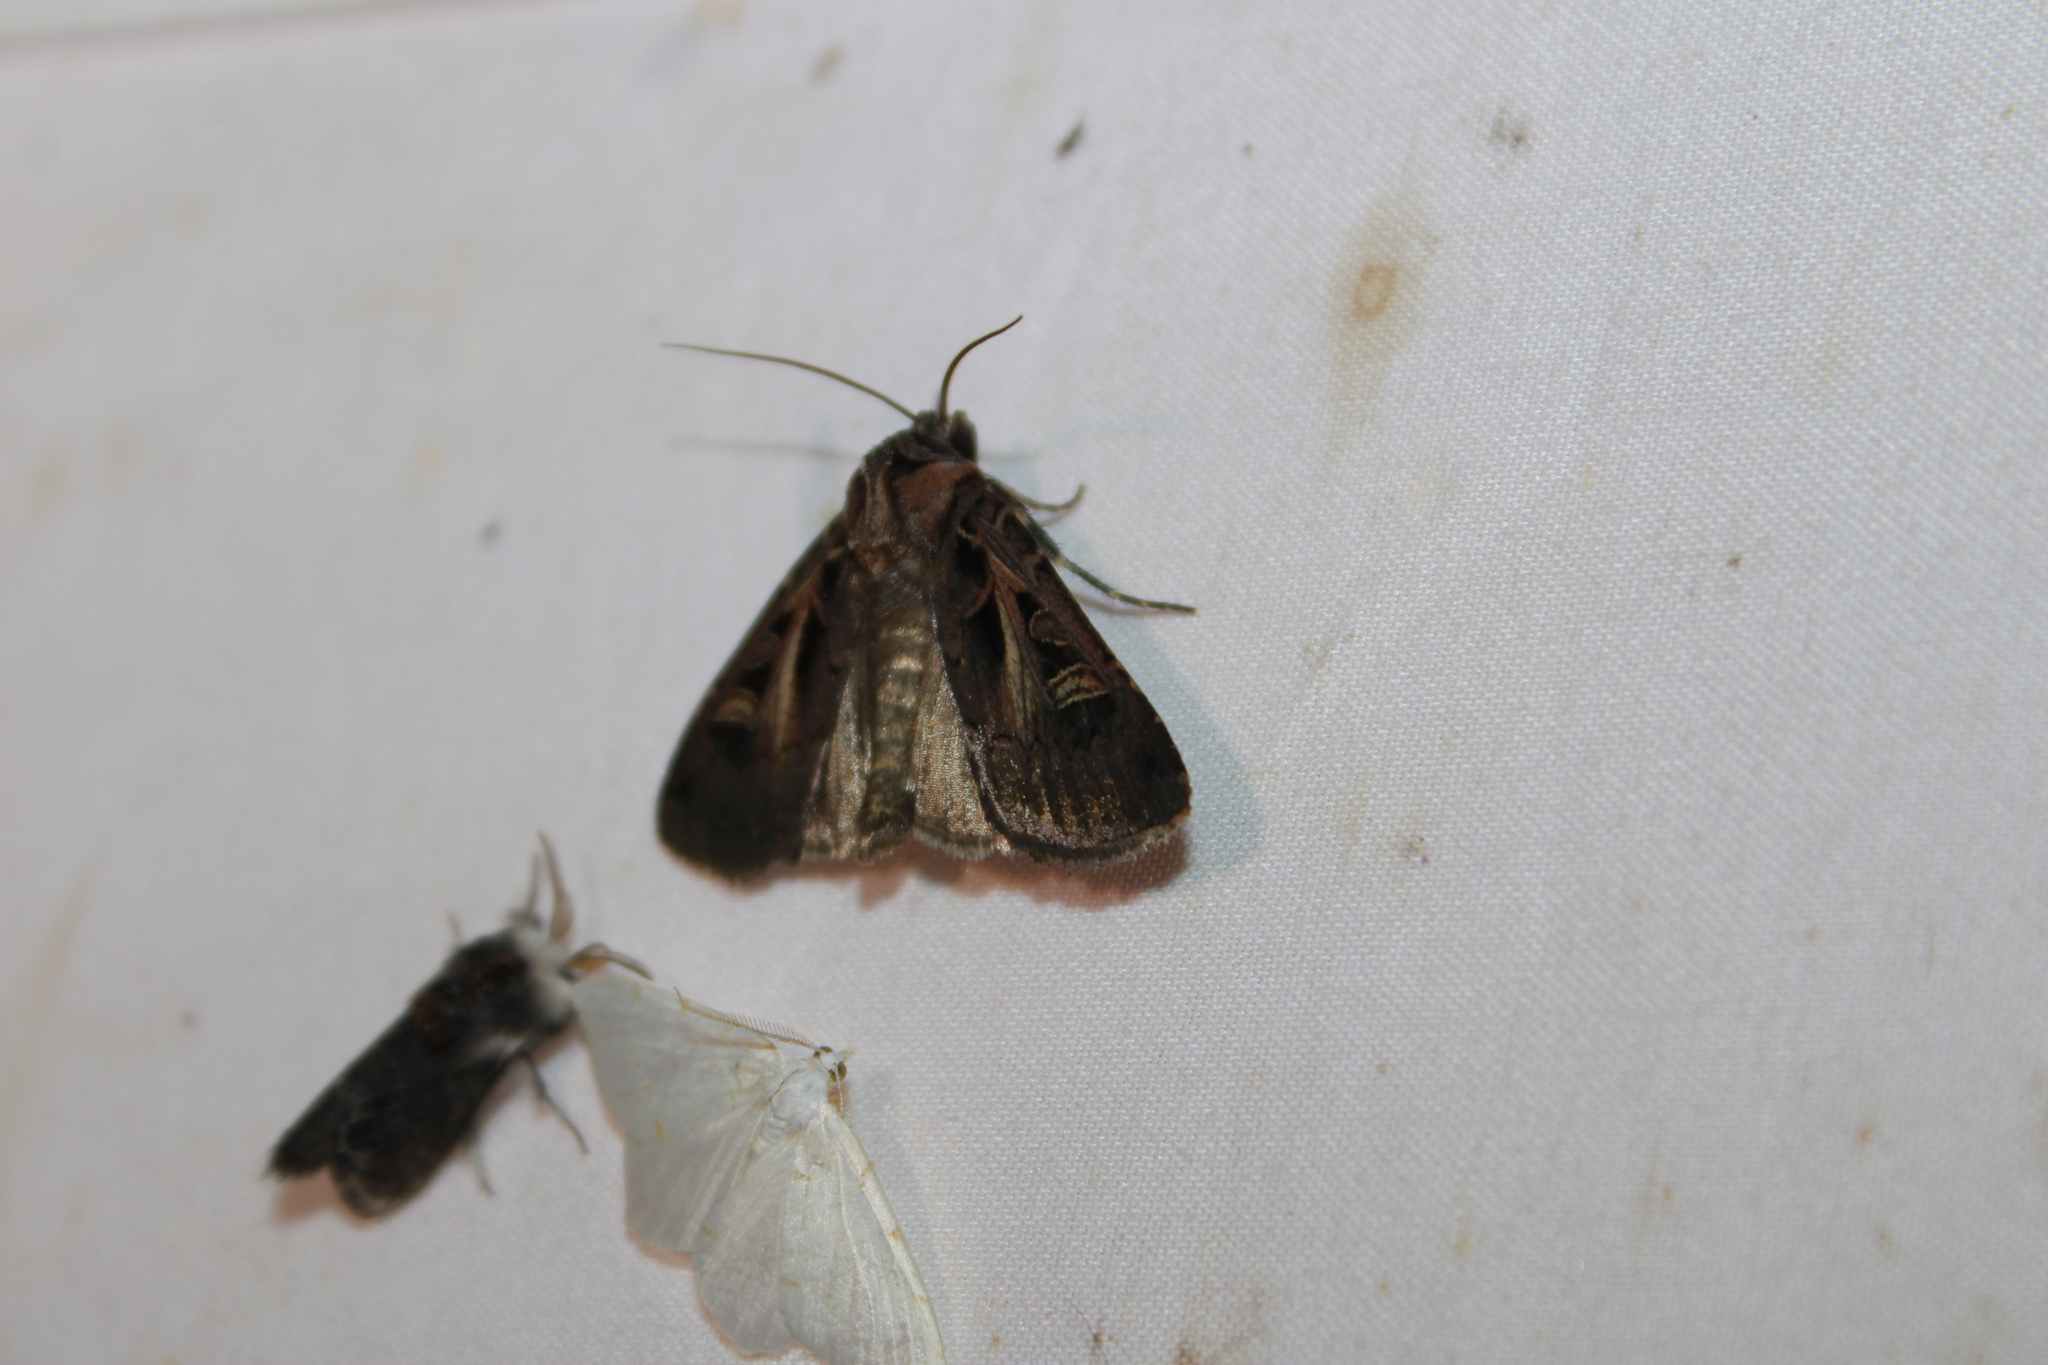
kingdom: Animalia
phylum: Arthropoda
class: Insecta
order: Lepidoptera
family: Noctuidae
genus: Feltia
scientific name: Feltia herilis
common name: Master's dart
